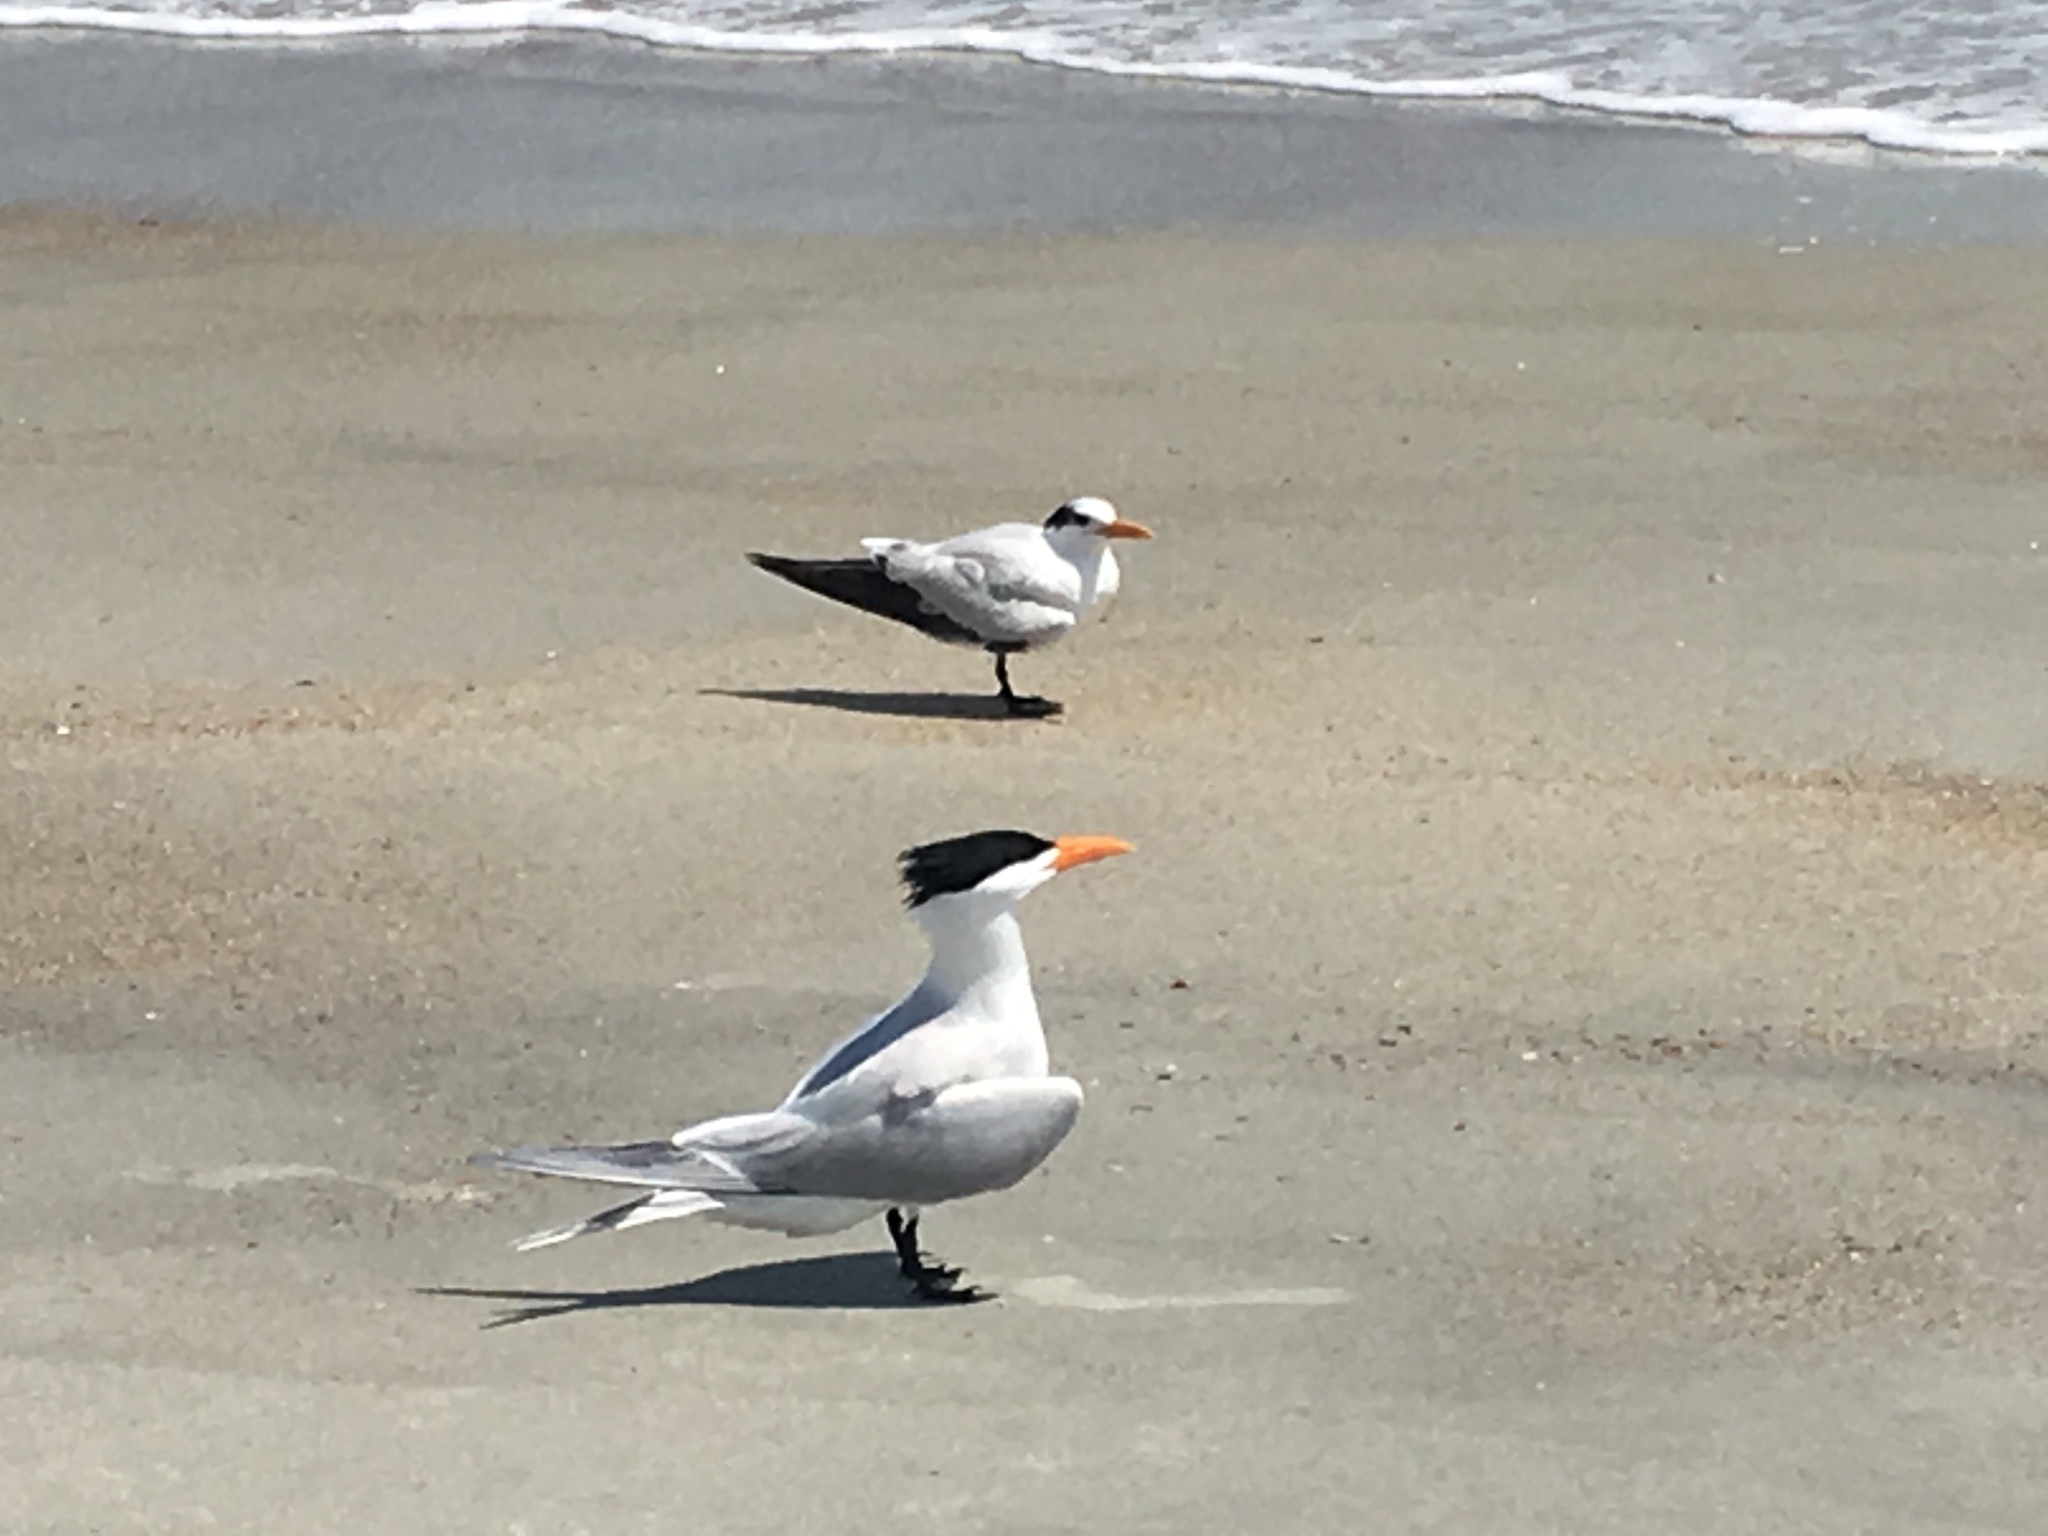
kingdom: Animalia
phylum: Chordata
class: Aves
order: Charadriiformes
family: Laridae
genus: Thalasseus
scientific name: Thalasseus maximus
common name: Royal tern
